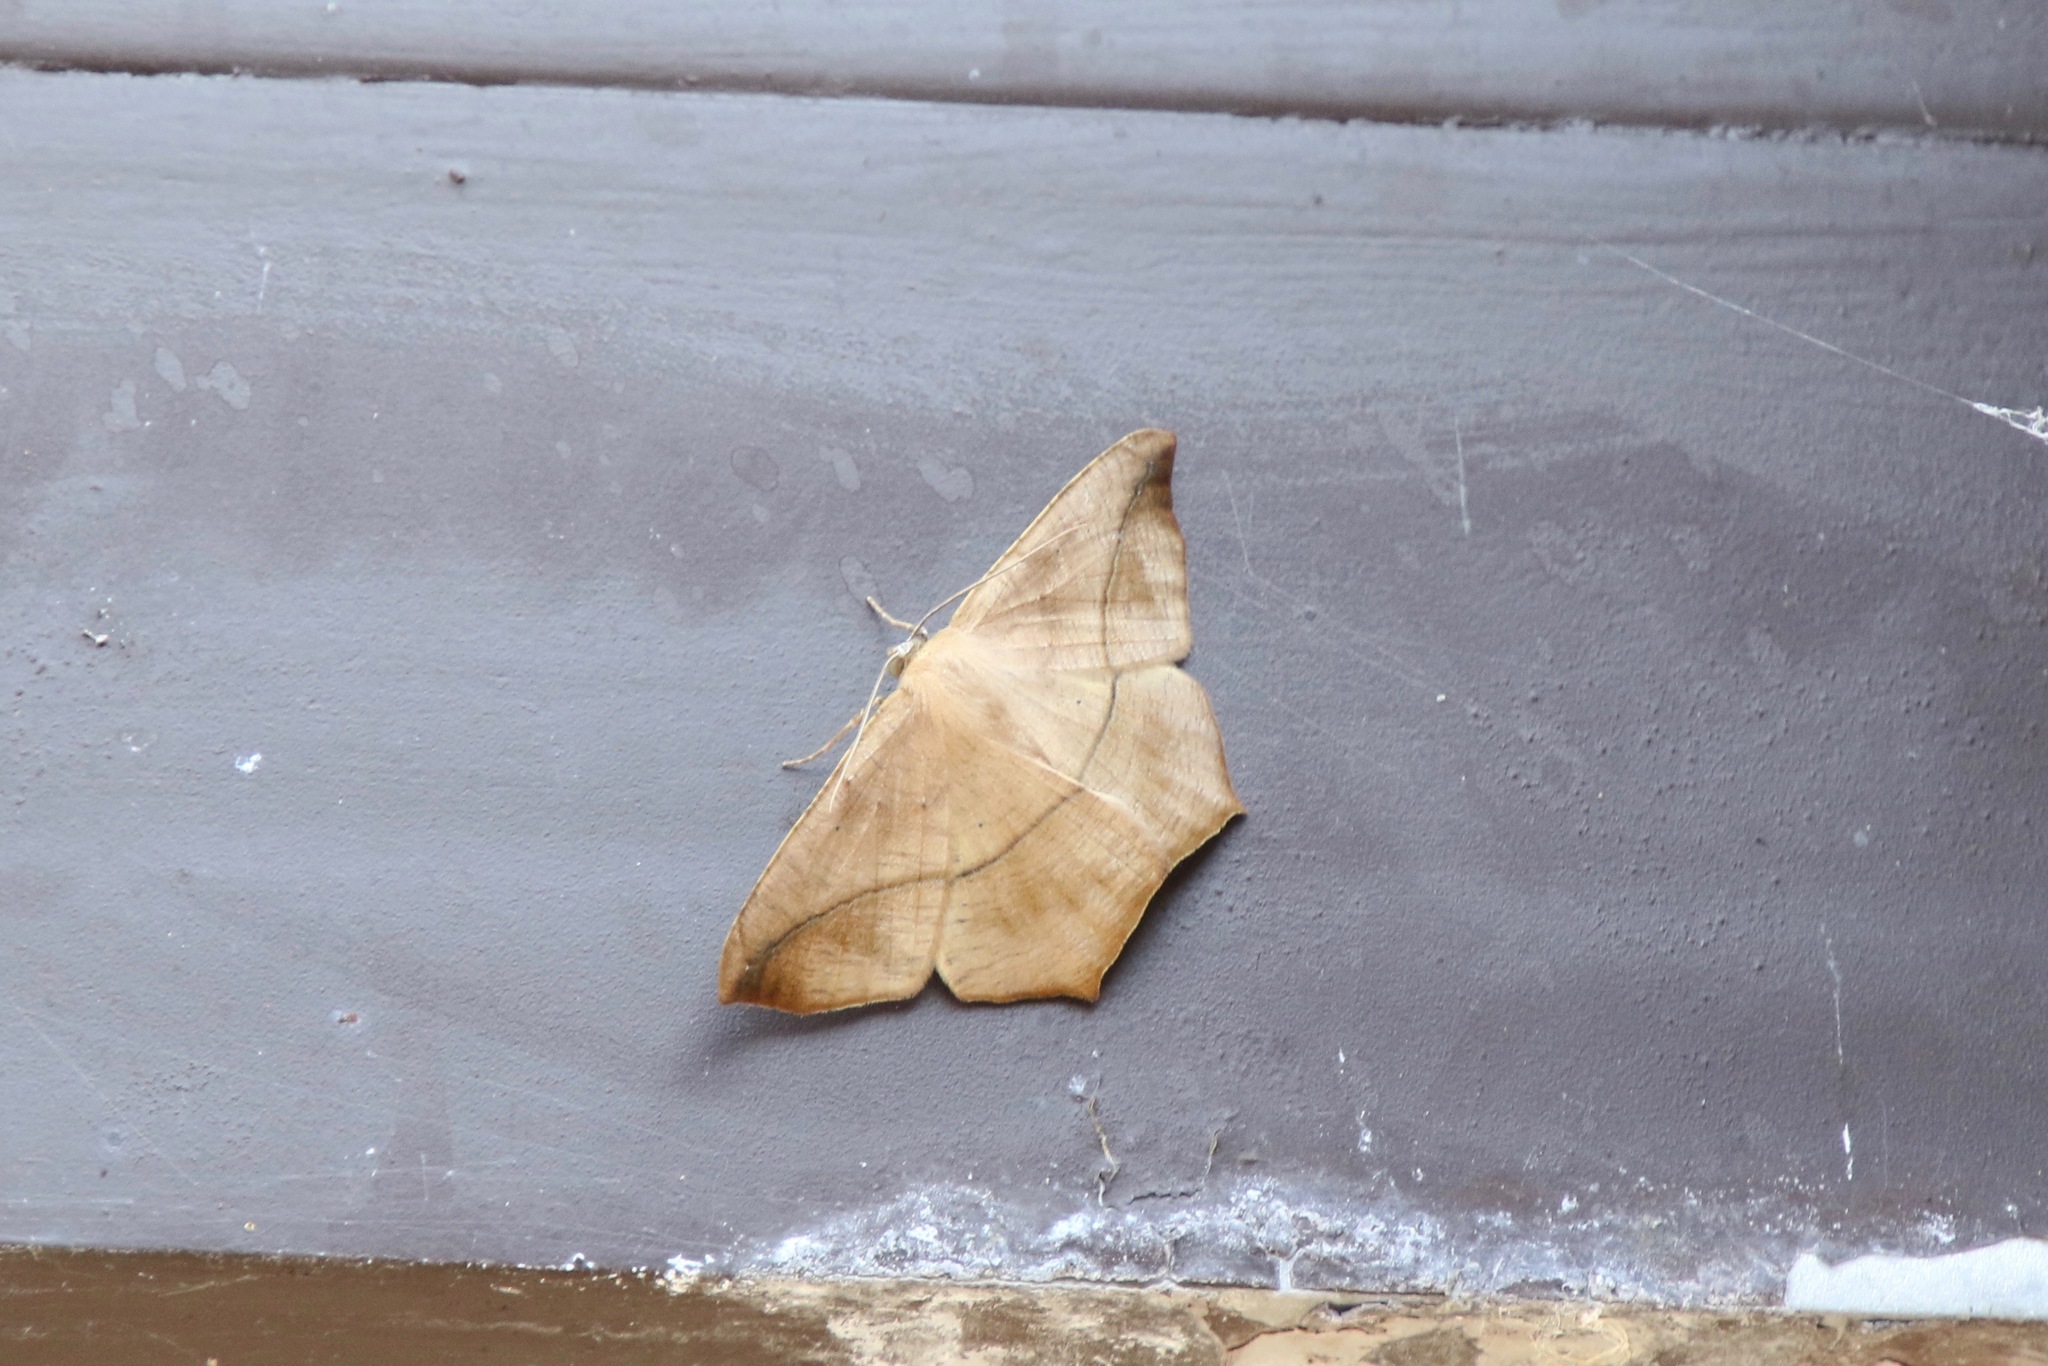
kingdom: Animalia
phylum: Arthropoda
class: Insecta
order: Lepidoptera
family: Geometridae
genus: Prochoerodes
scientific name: Prochoerodes lineola
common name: Large maple spanworm
